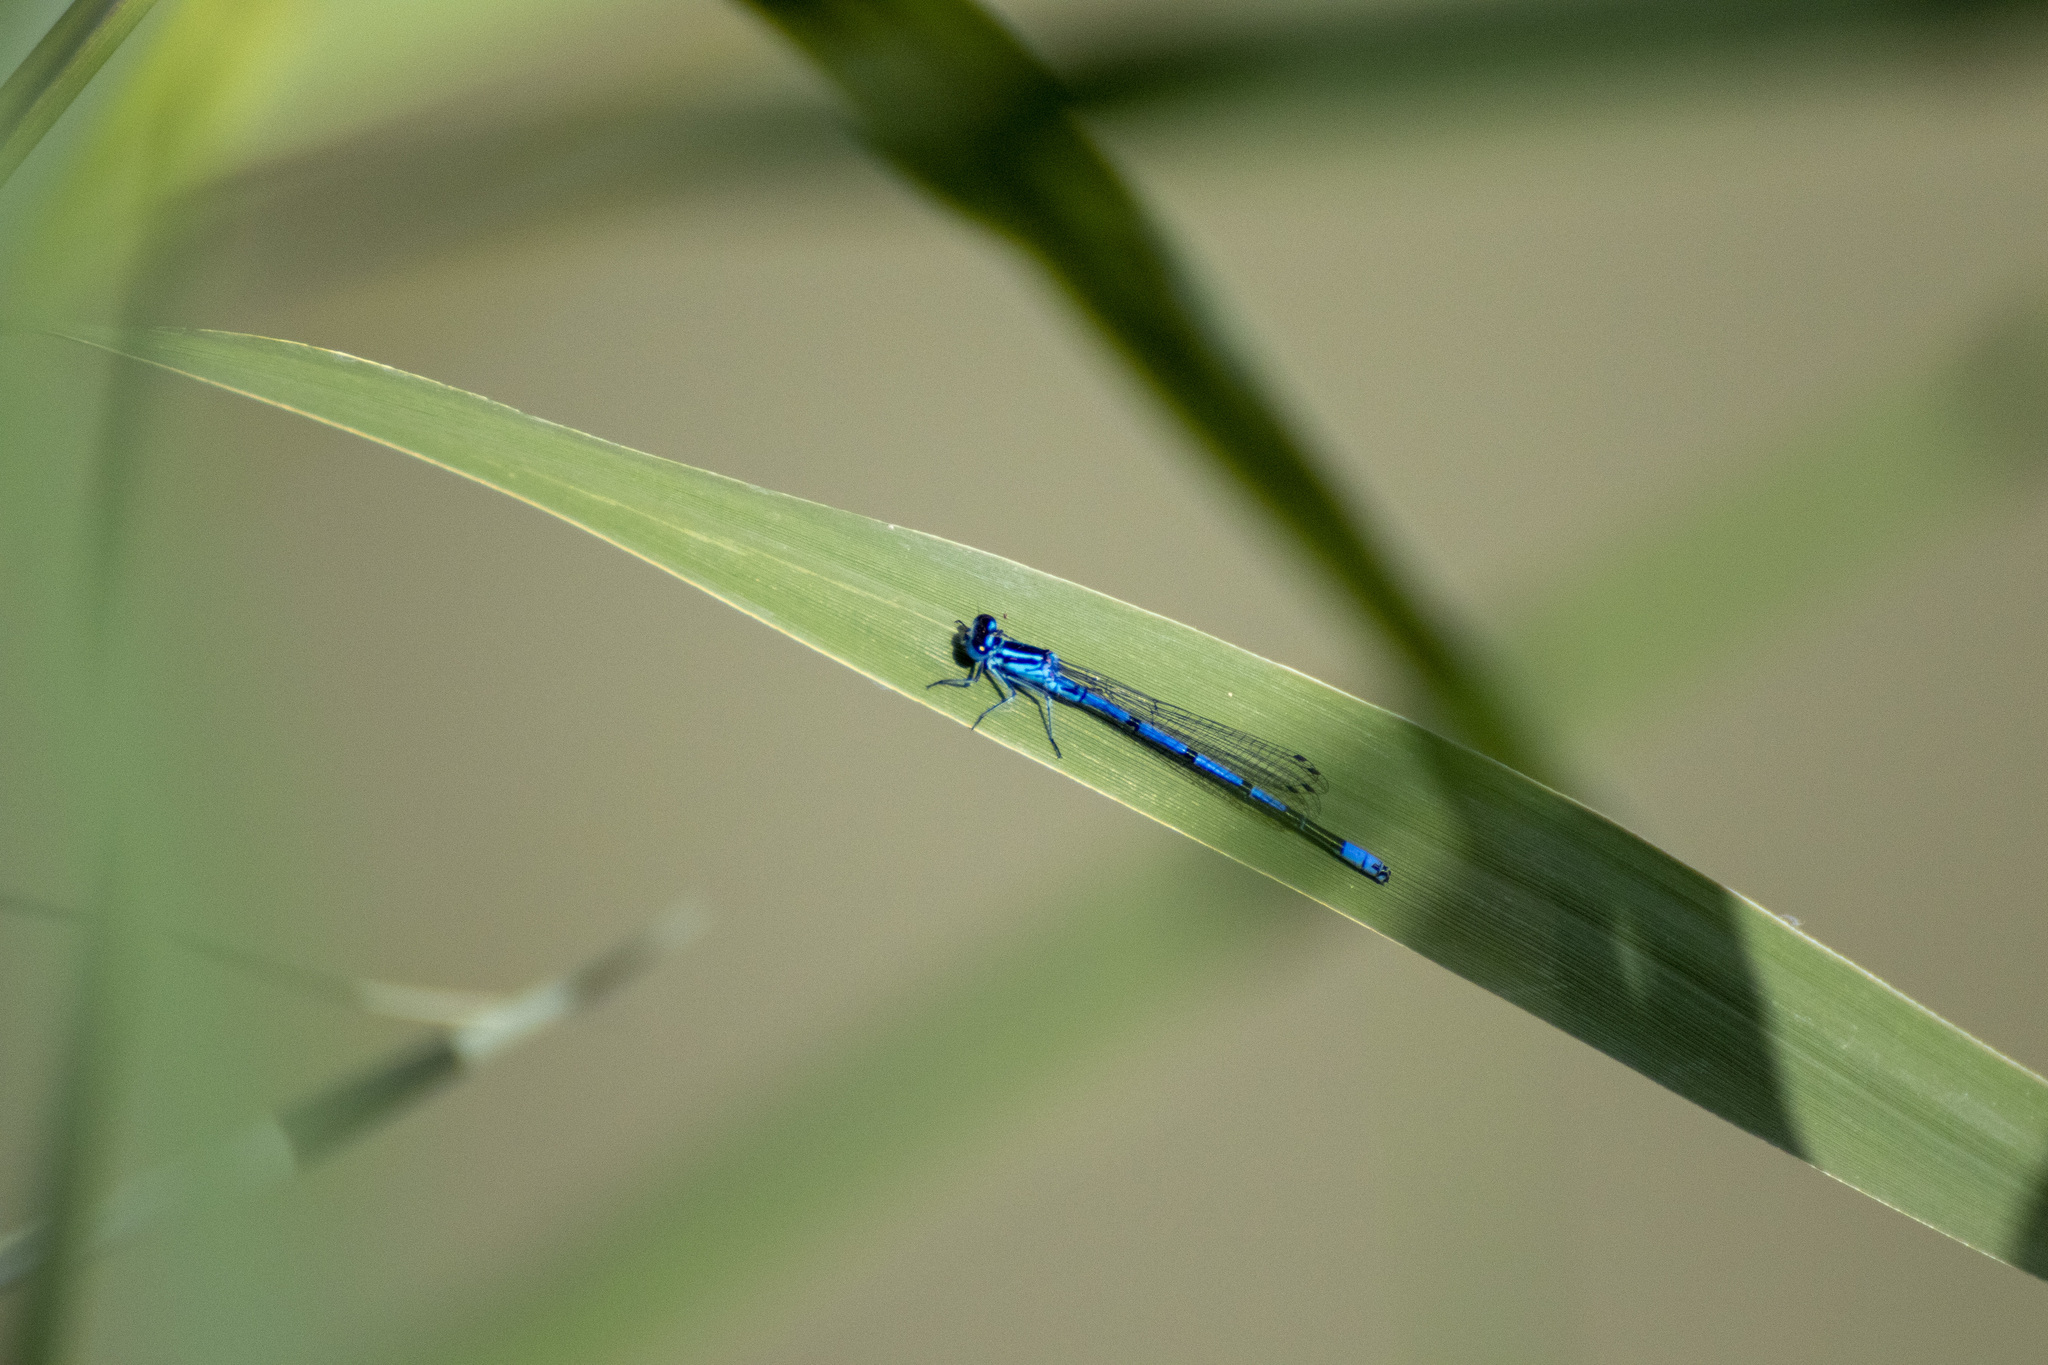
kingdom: Animalia
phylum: Arthropoda
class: Insecta
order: Odonata
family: Coenagrionidae
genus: Coenagrion
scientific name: Coenagrion puella
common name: Azure damselfly
